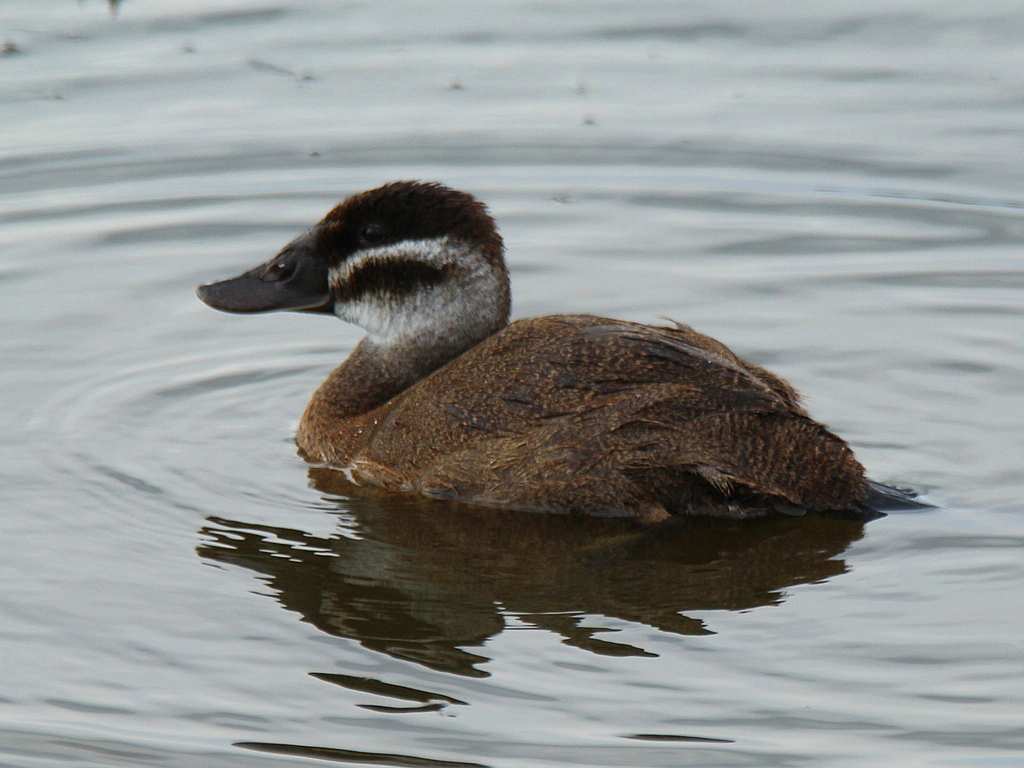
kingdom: Animalia
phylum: Chordata
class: Aves
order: Anseriformes
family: Anatidae
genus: Oxyura
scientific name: Oxyura leucocephala
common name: White-headed duck
